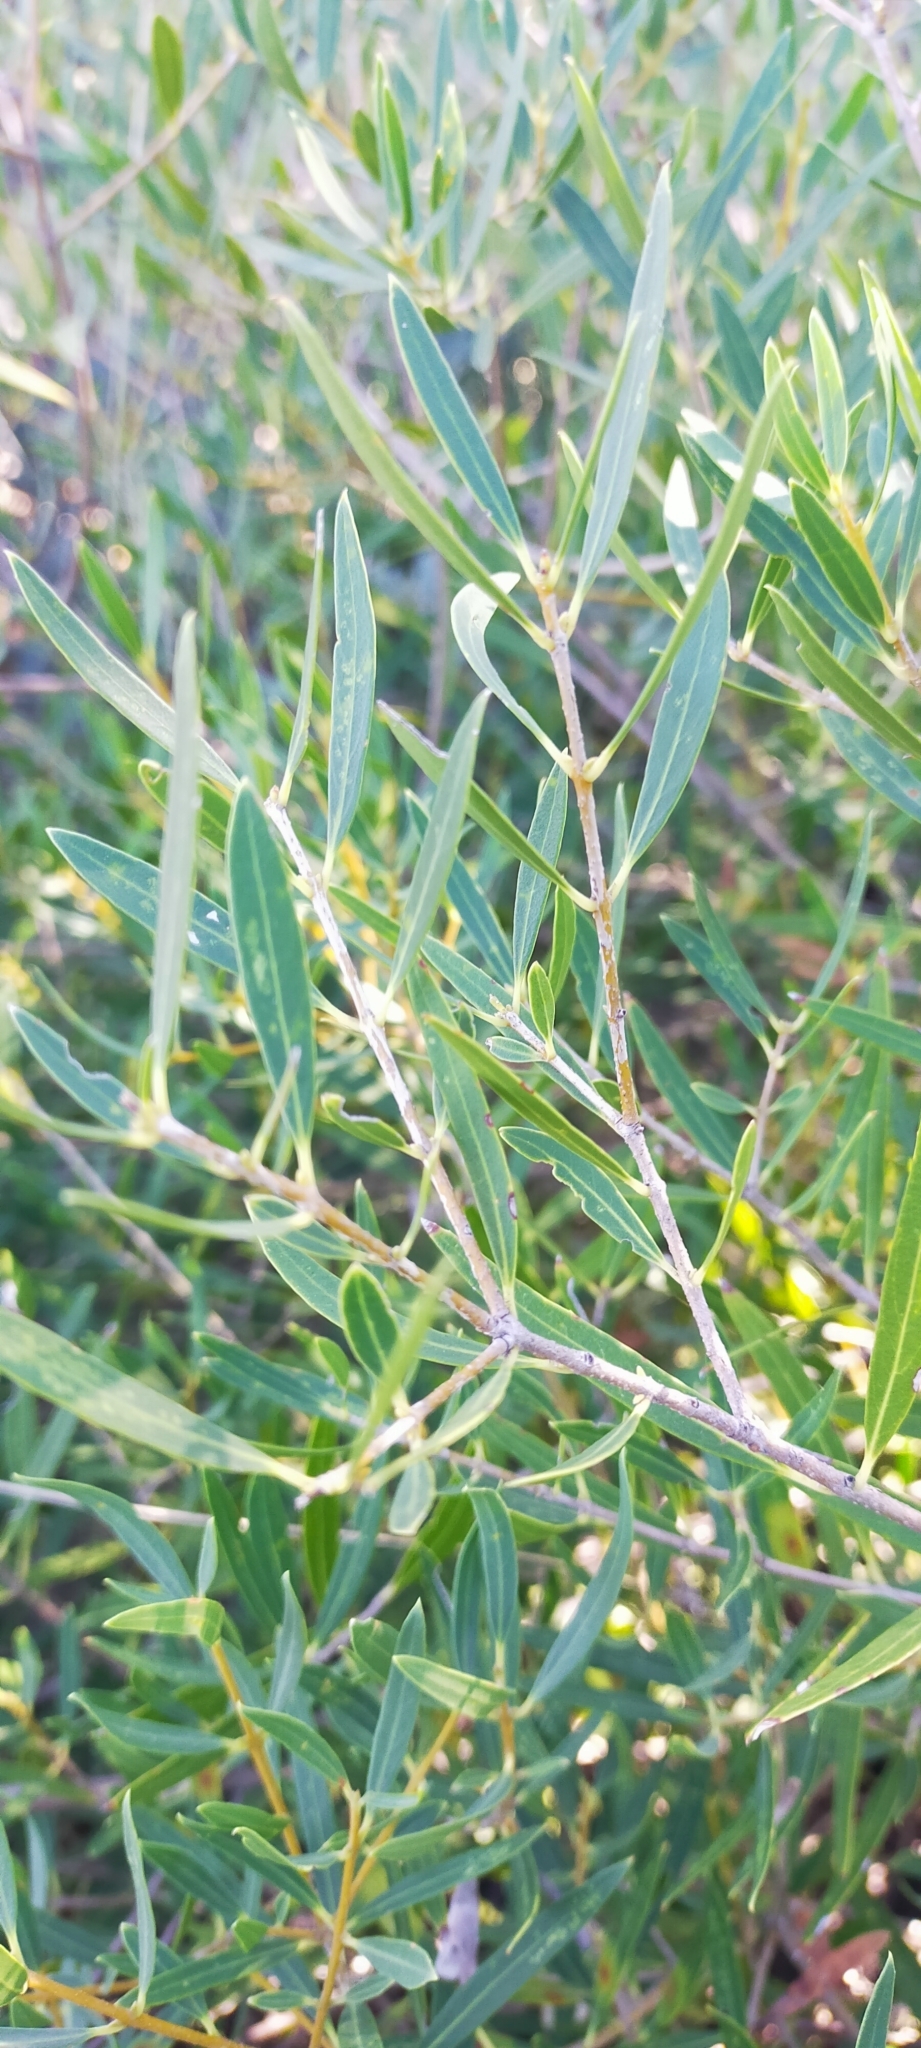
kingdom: Plantae
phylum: Tracheophyta
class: Magnoliopsida
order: Lamiales
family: Oleaceae
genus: Phillyrea
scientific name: Phillyrea angustifolia
